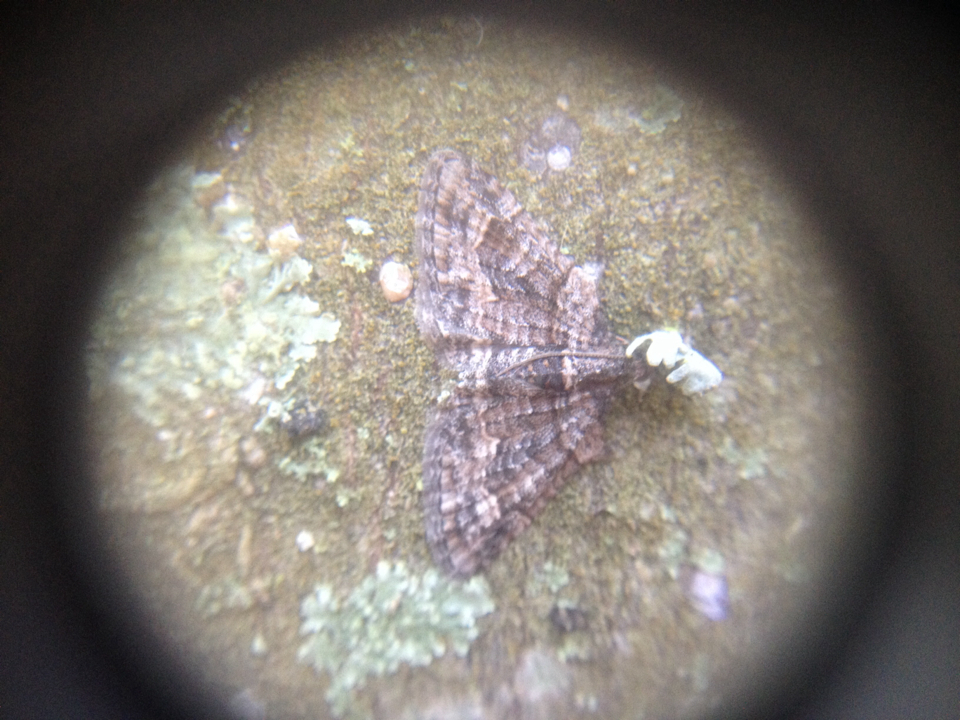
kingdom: Animalia
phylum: Arthropoda
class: Insecta
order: Lepidoptera
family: Geometridae
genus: Phrissogonus
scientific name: Phrissogonus laticostata
